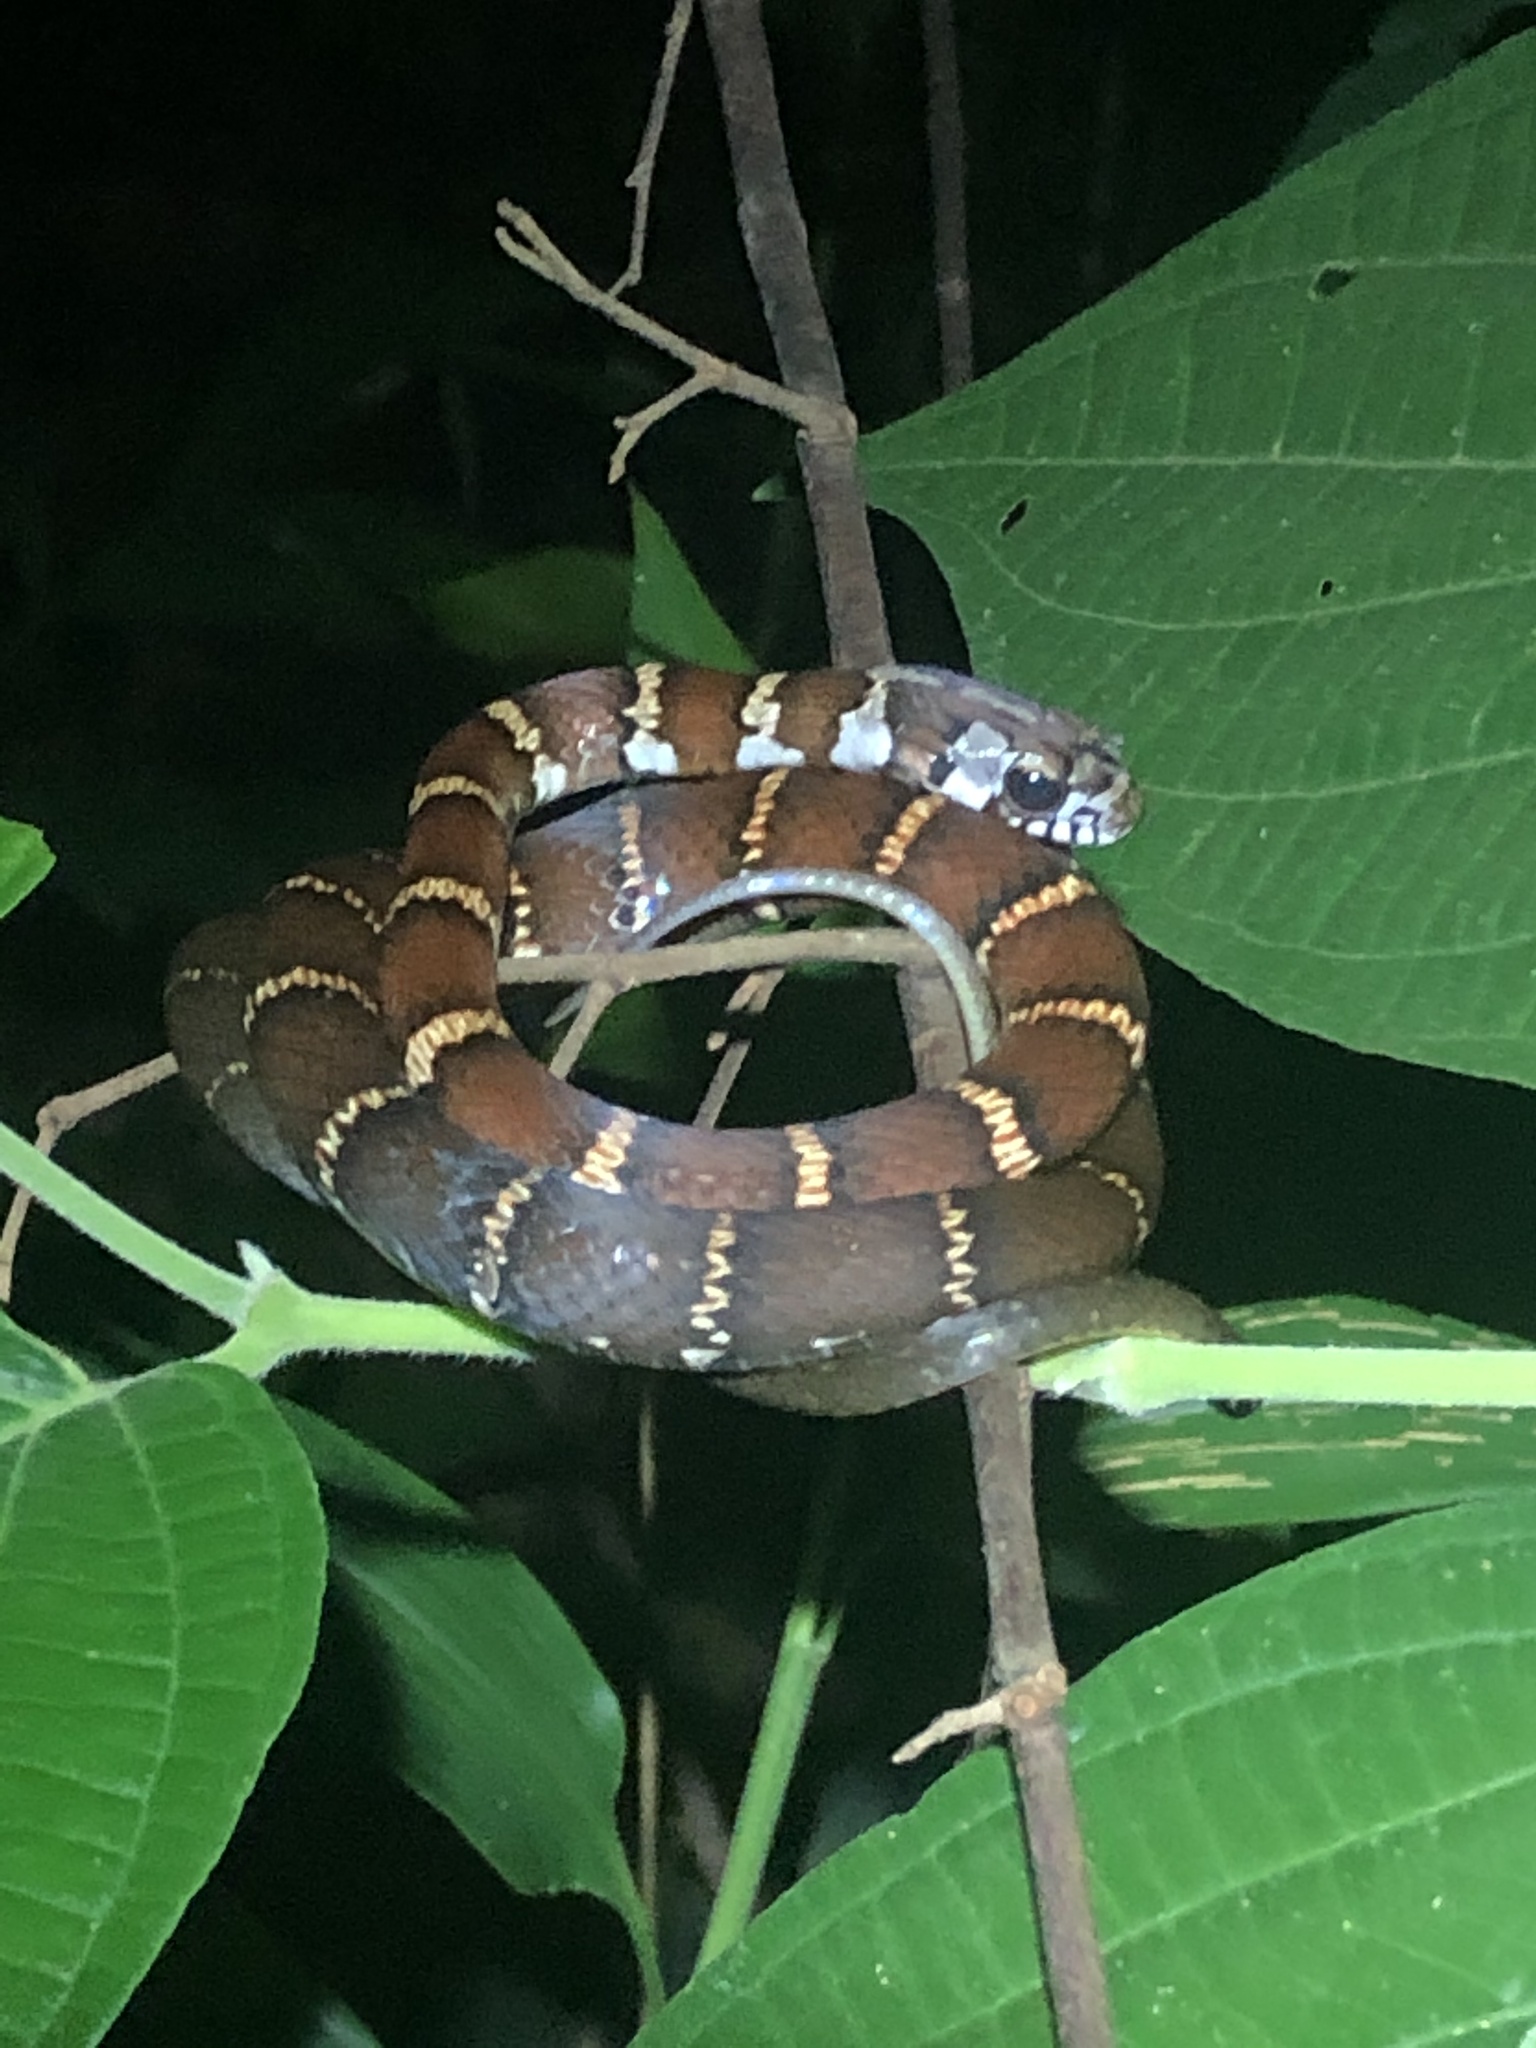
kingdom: Animalia
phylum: Chordata
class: Squamata
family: Colubridae
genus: Drymoluber
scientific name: Drymoluber dichrous
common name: Northern woodland racer
